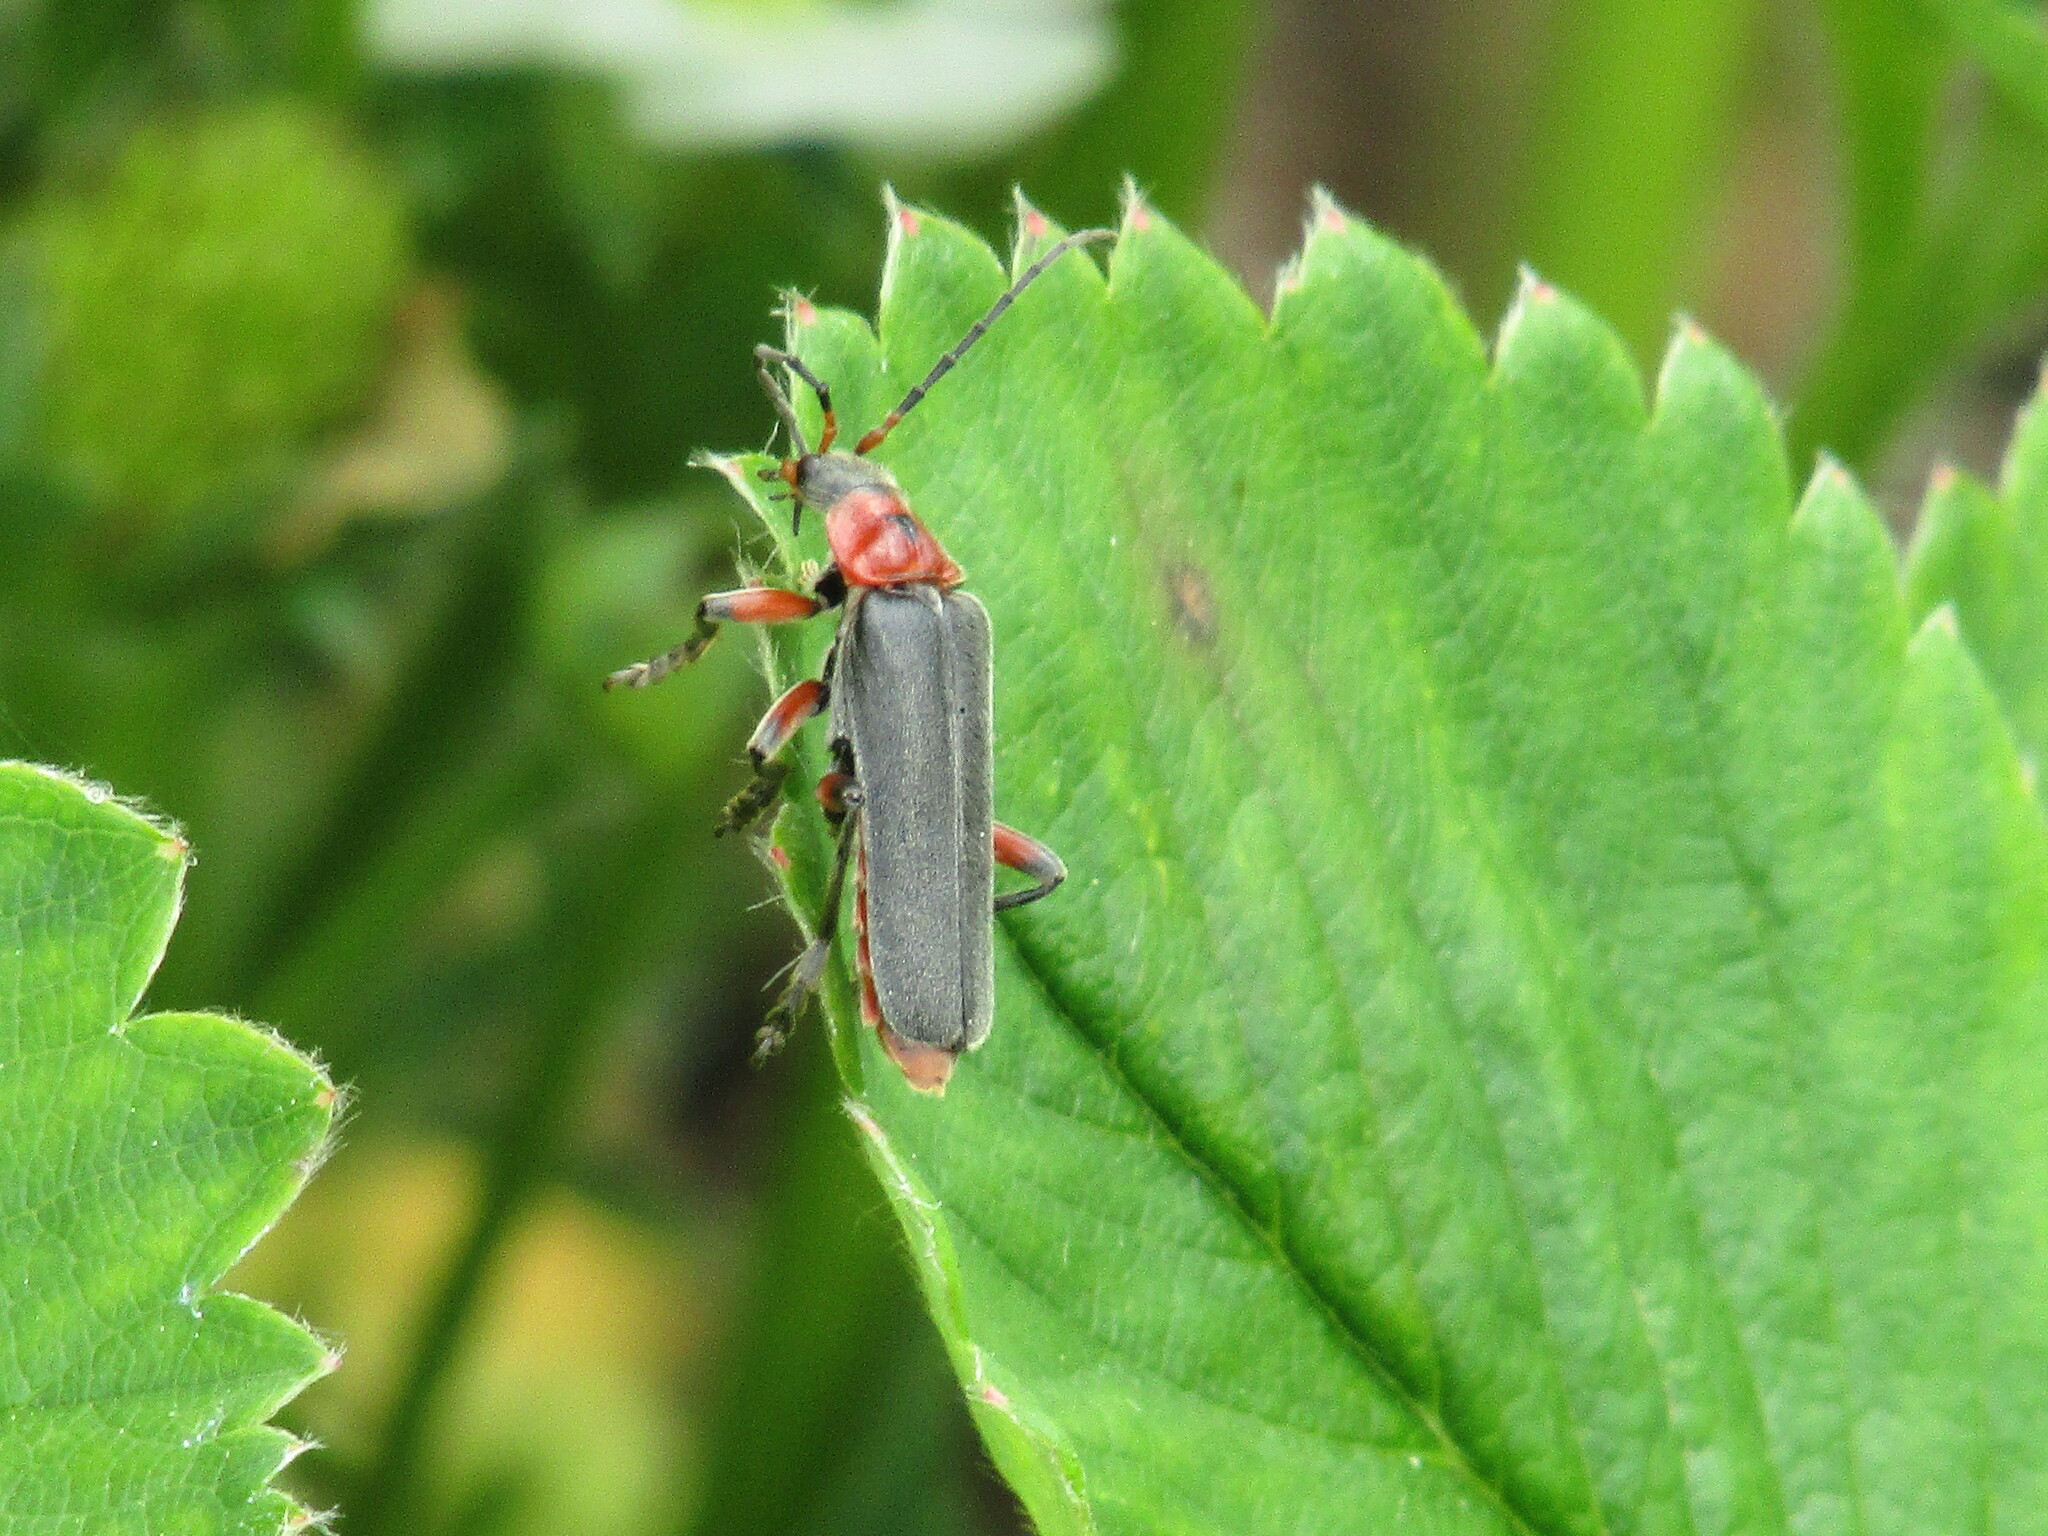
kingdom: Animalia
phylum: Arthropoda
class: Insecta
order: Coleoptera
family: Cantharidae
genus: Cantharis
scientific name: Cantharis rustica
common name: Soldier beetle
